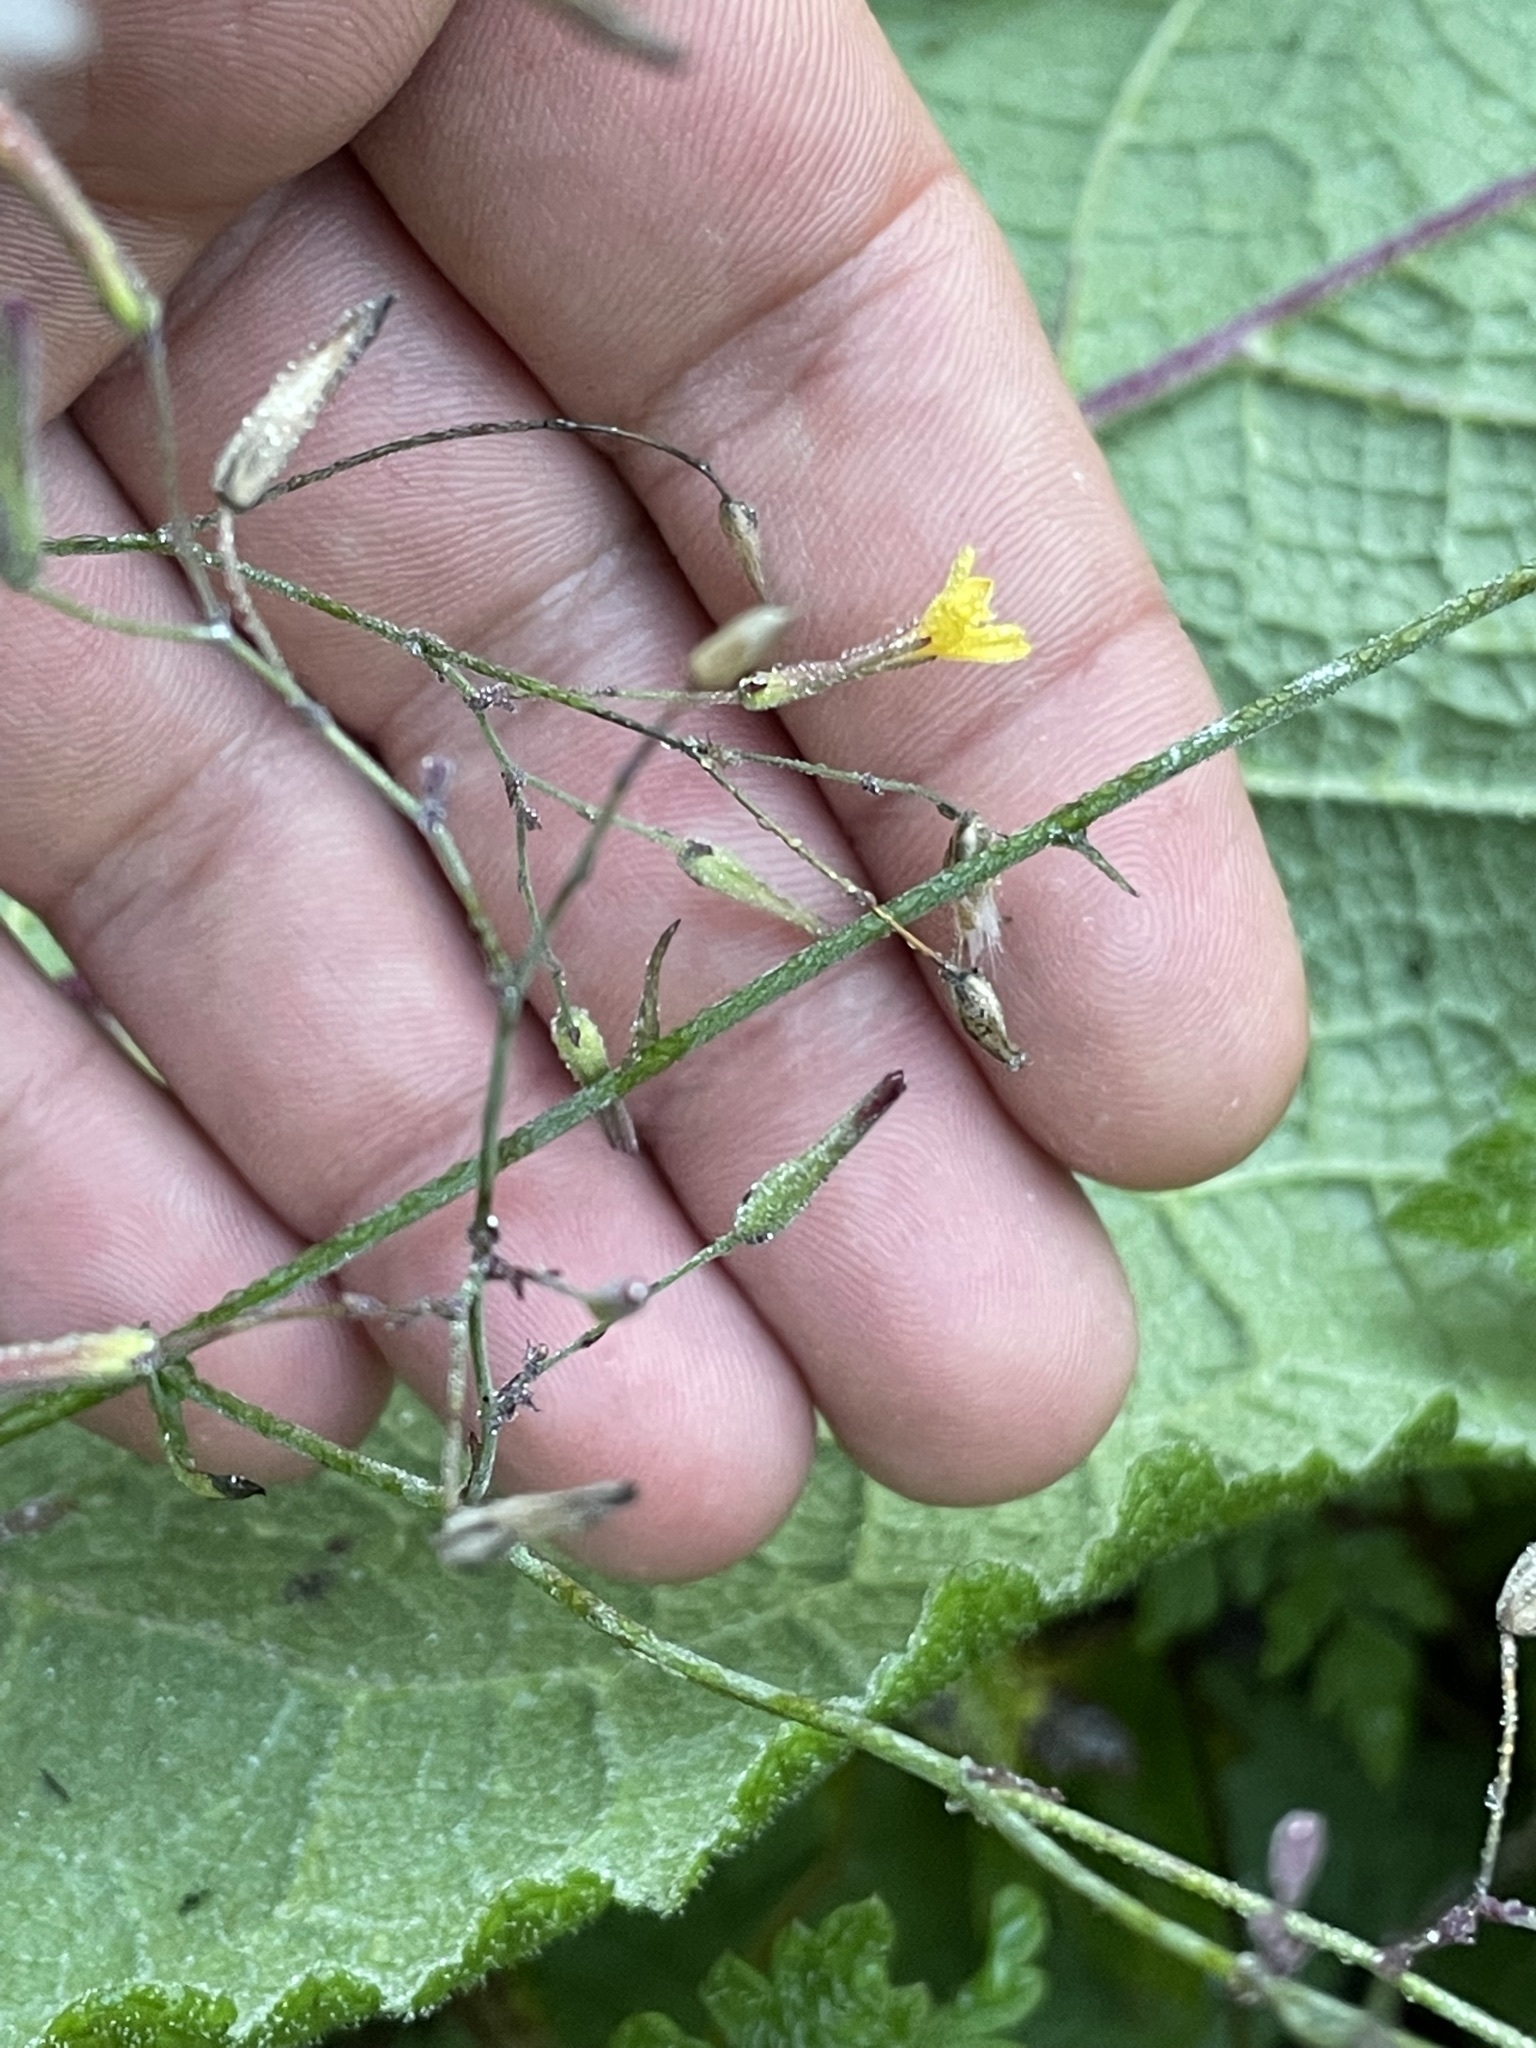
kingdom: Plantae
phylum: Tracheophyta
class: Magnoliopsida
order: Asterales
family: Asteraceae
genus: Mycelis
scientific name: Mycelis muralis
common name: Wall lettuce
